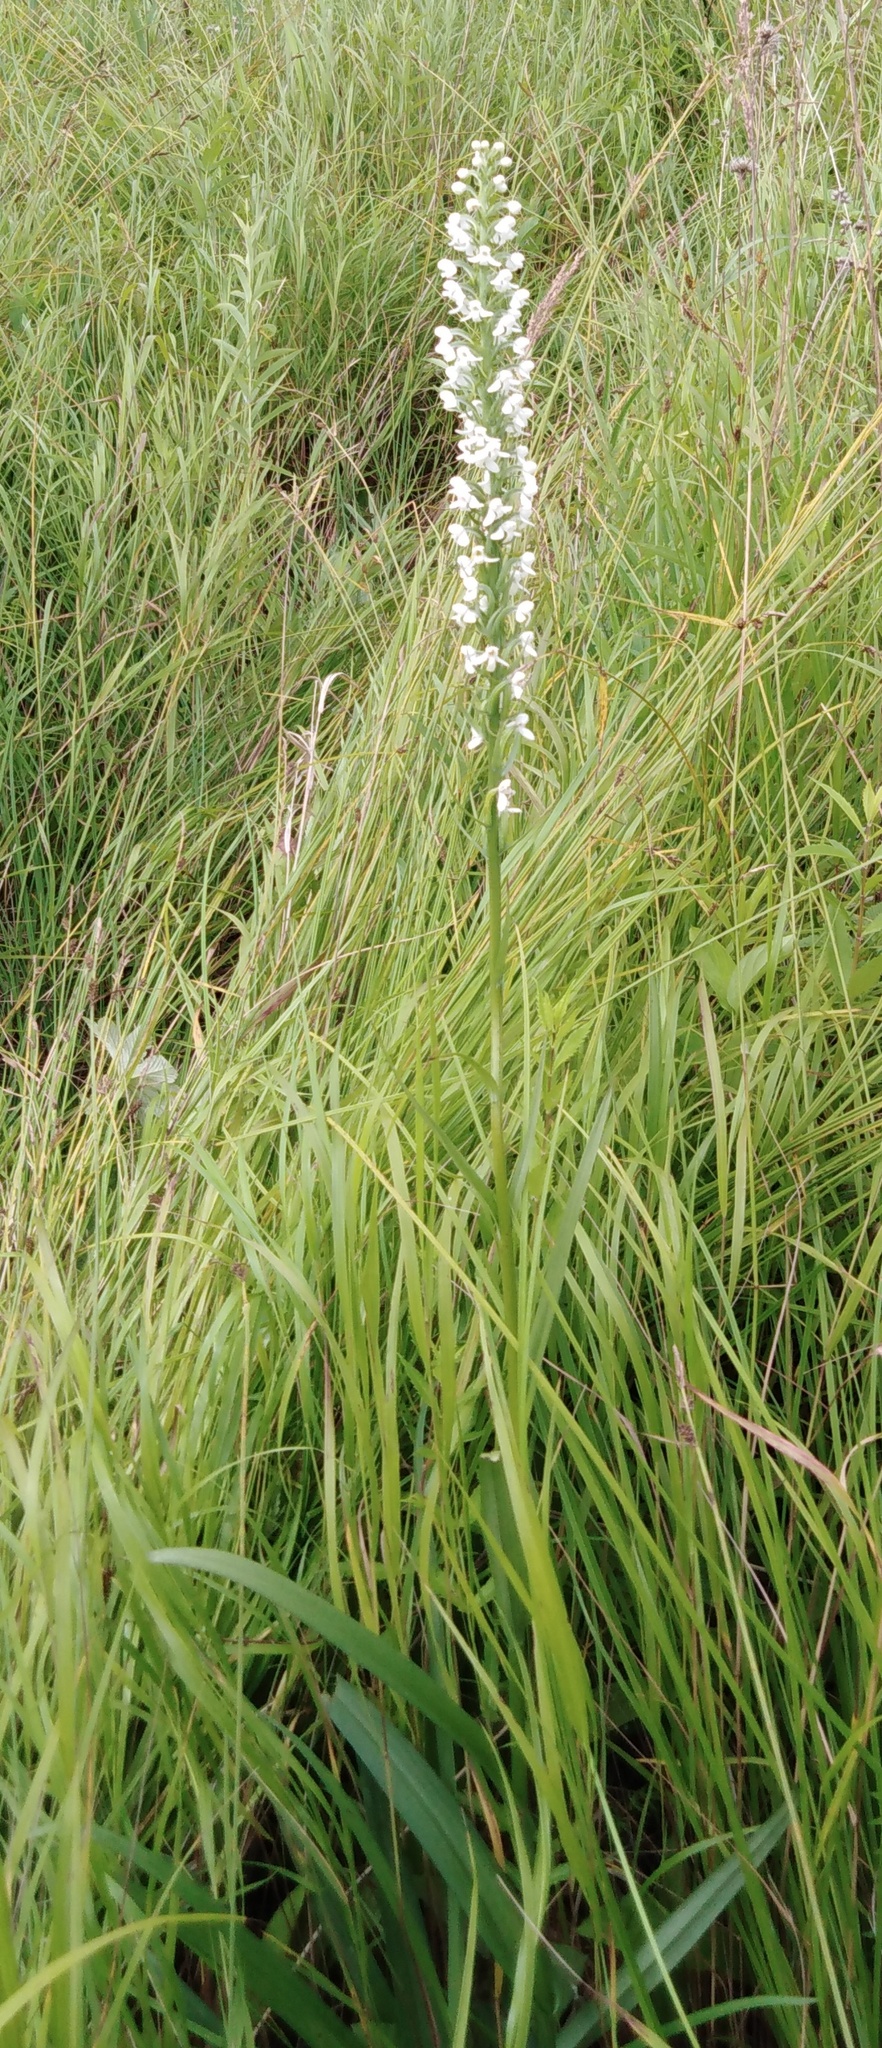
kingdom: Plantae
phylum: Tracheophyta
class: Liliopsida
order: Asparagales
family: Orchidaceae
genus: Platanthera
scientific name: Platanthera hologlottis
